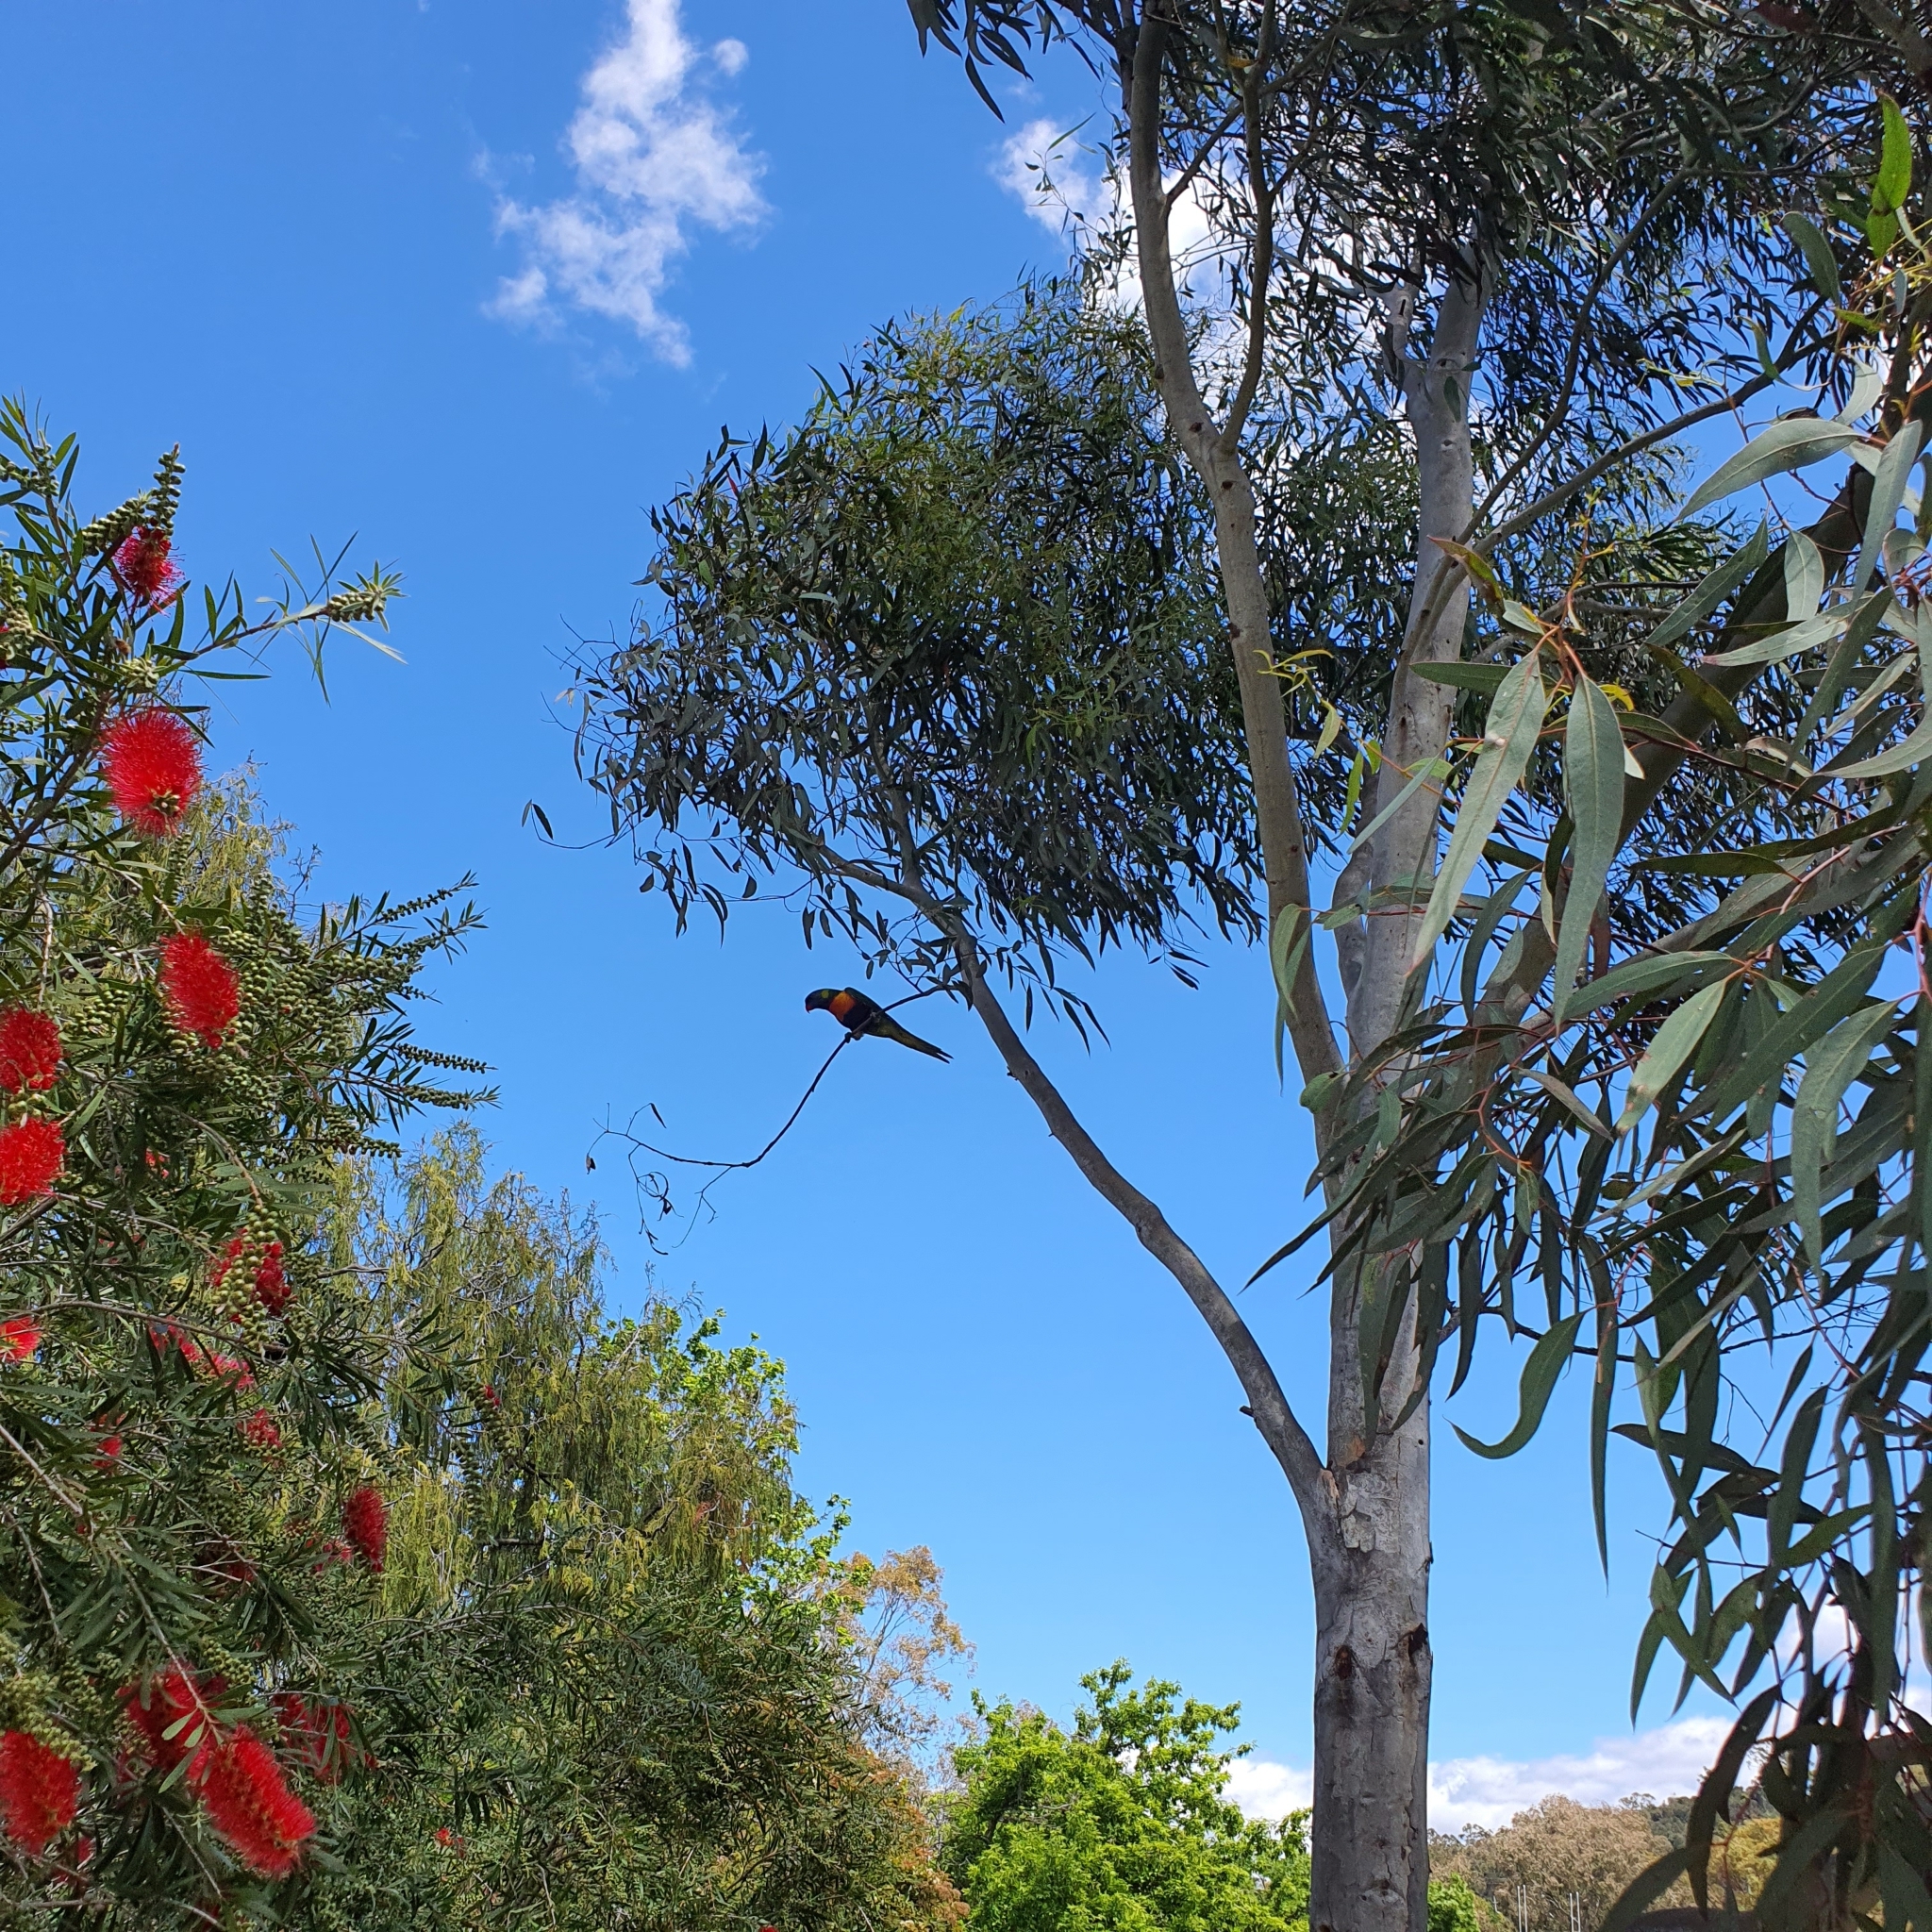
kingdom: Animalia
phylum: Chordata
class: Aves
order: Psittaciformes
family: Psittacidae
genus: Trichoglossus
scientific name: Trichoglossus haematodus
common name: Coconut lorikeet
